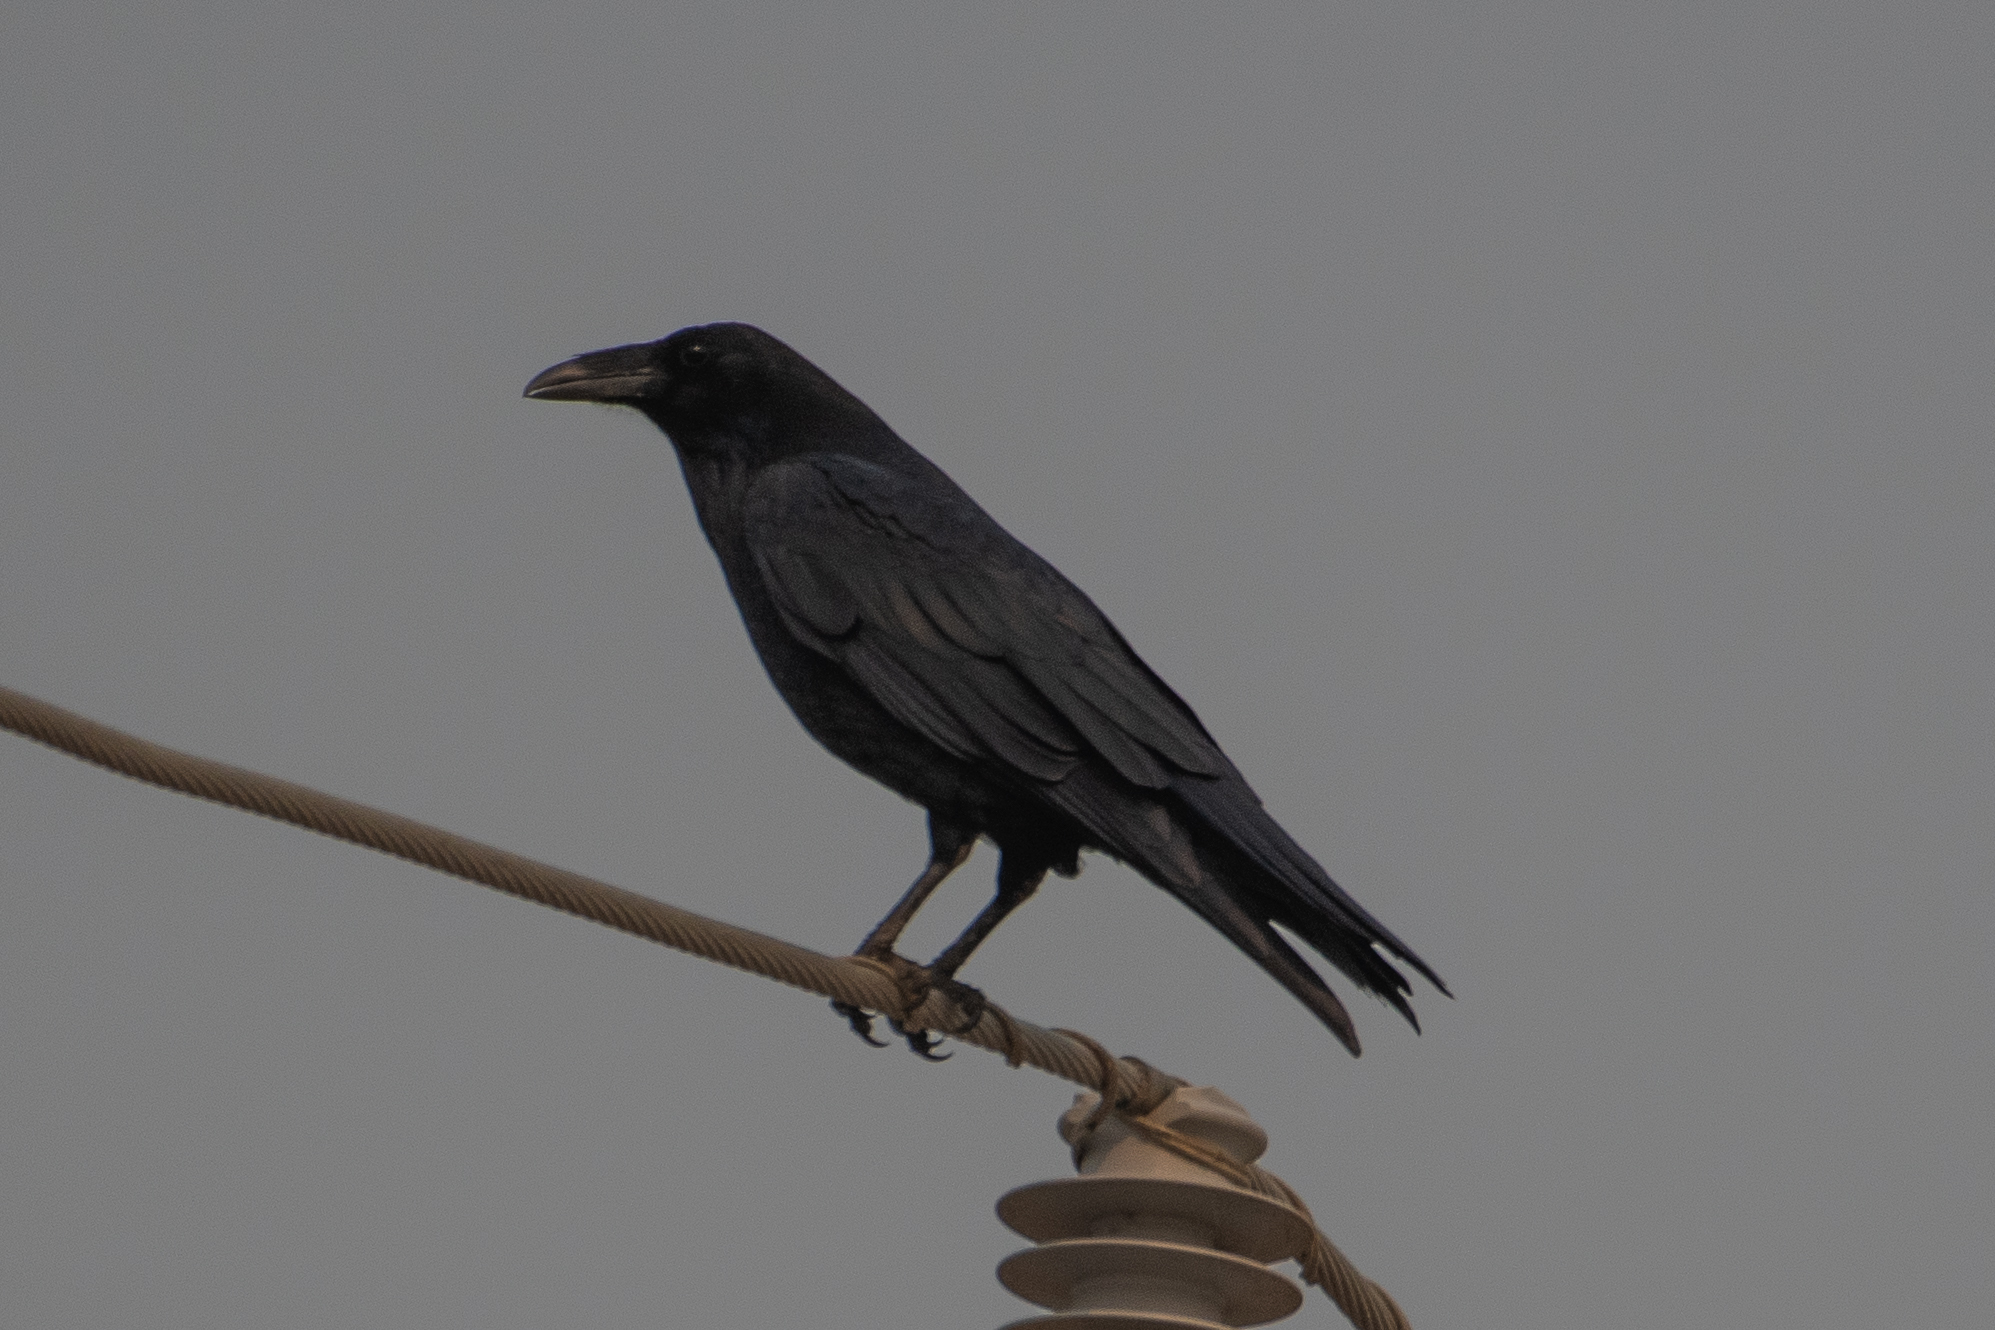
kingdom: Animalia
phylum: Chordata
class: Aves
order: Passeriformes
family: Corvidae
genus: Corvus
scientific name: Corvus corax
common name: Common raven
